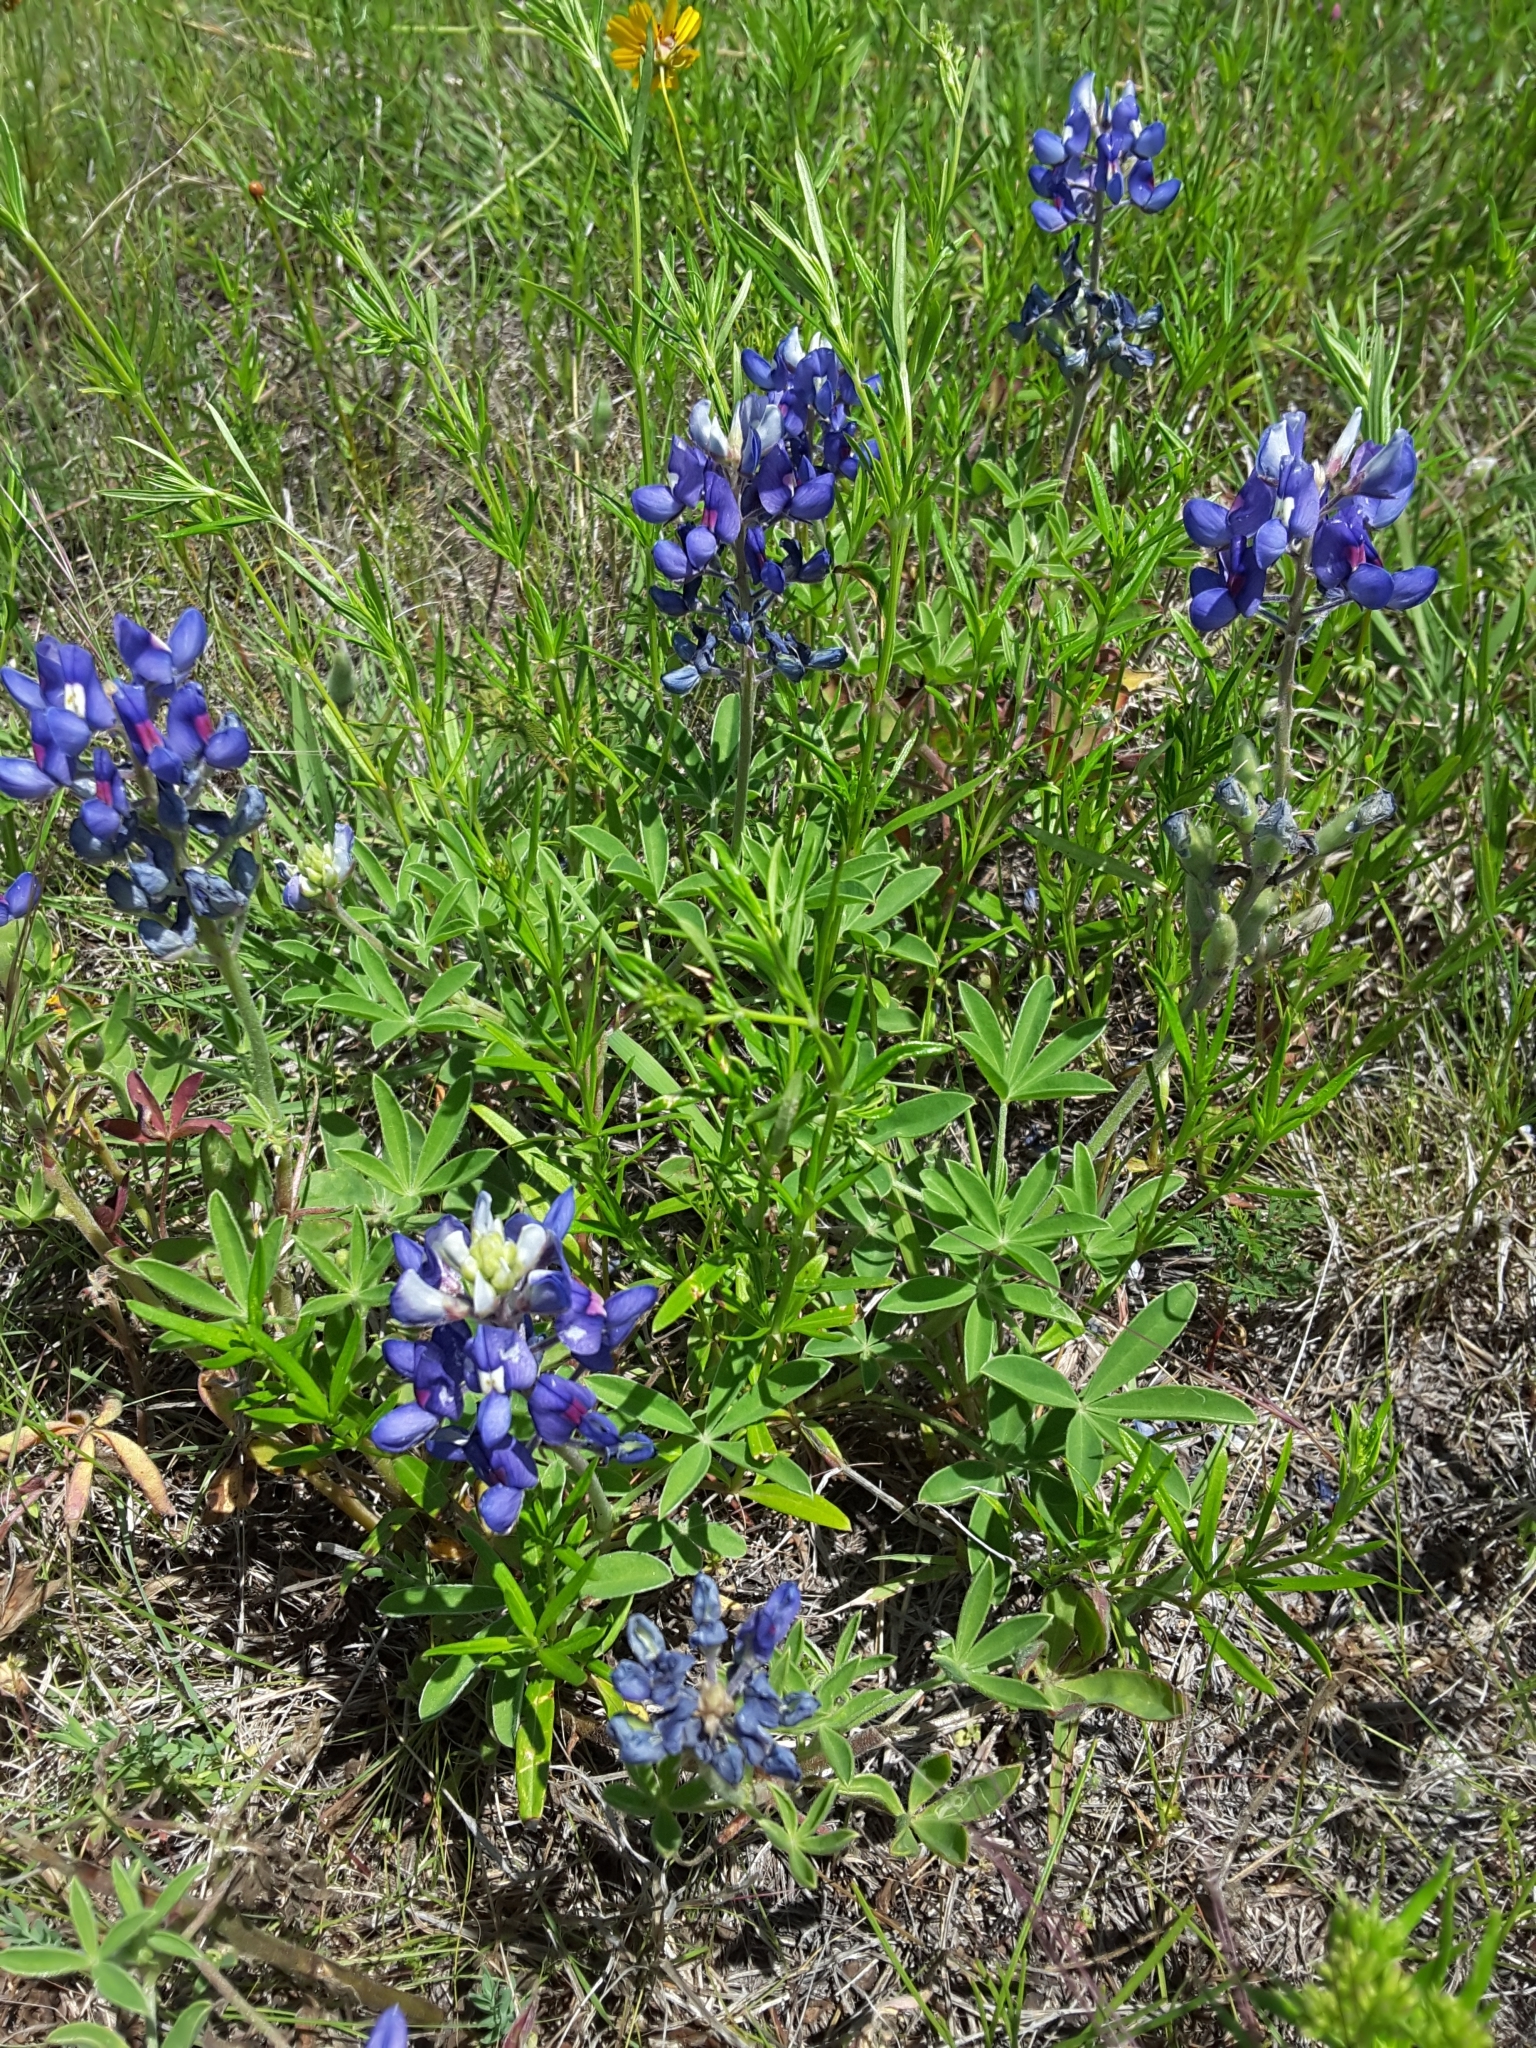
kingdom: Plantae
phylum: Tracheophyta
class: Magnoliopsida
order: Fabales
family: Fabaceae
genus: Lupinus
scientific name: Lupinus texensis
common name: Texas bluebonnet
